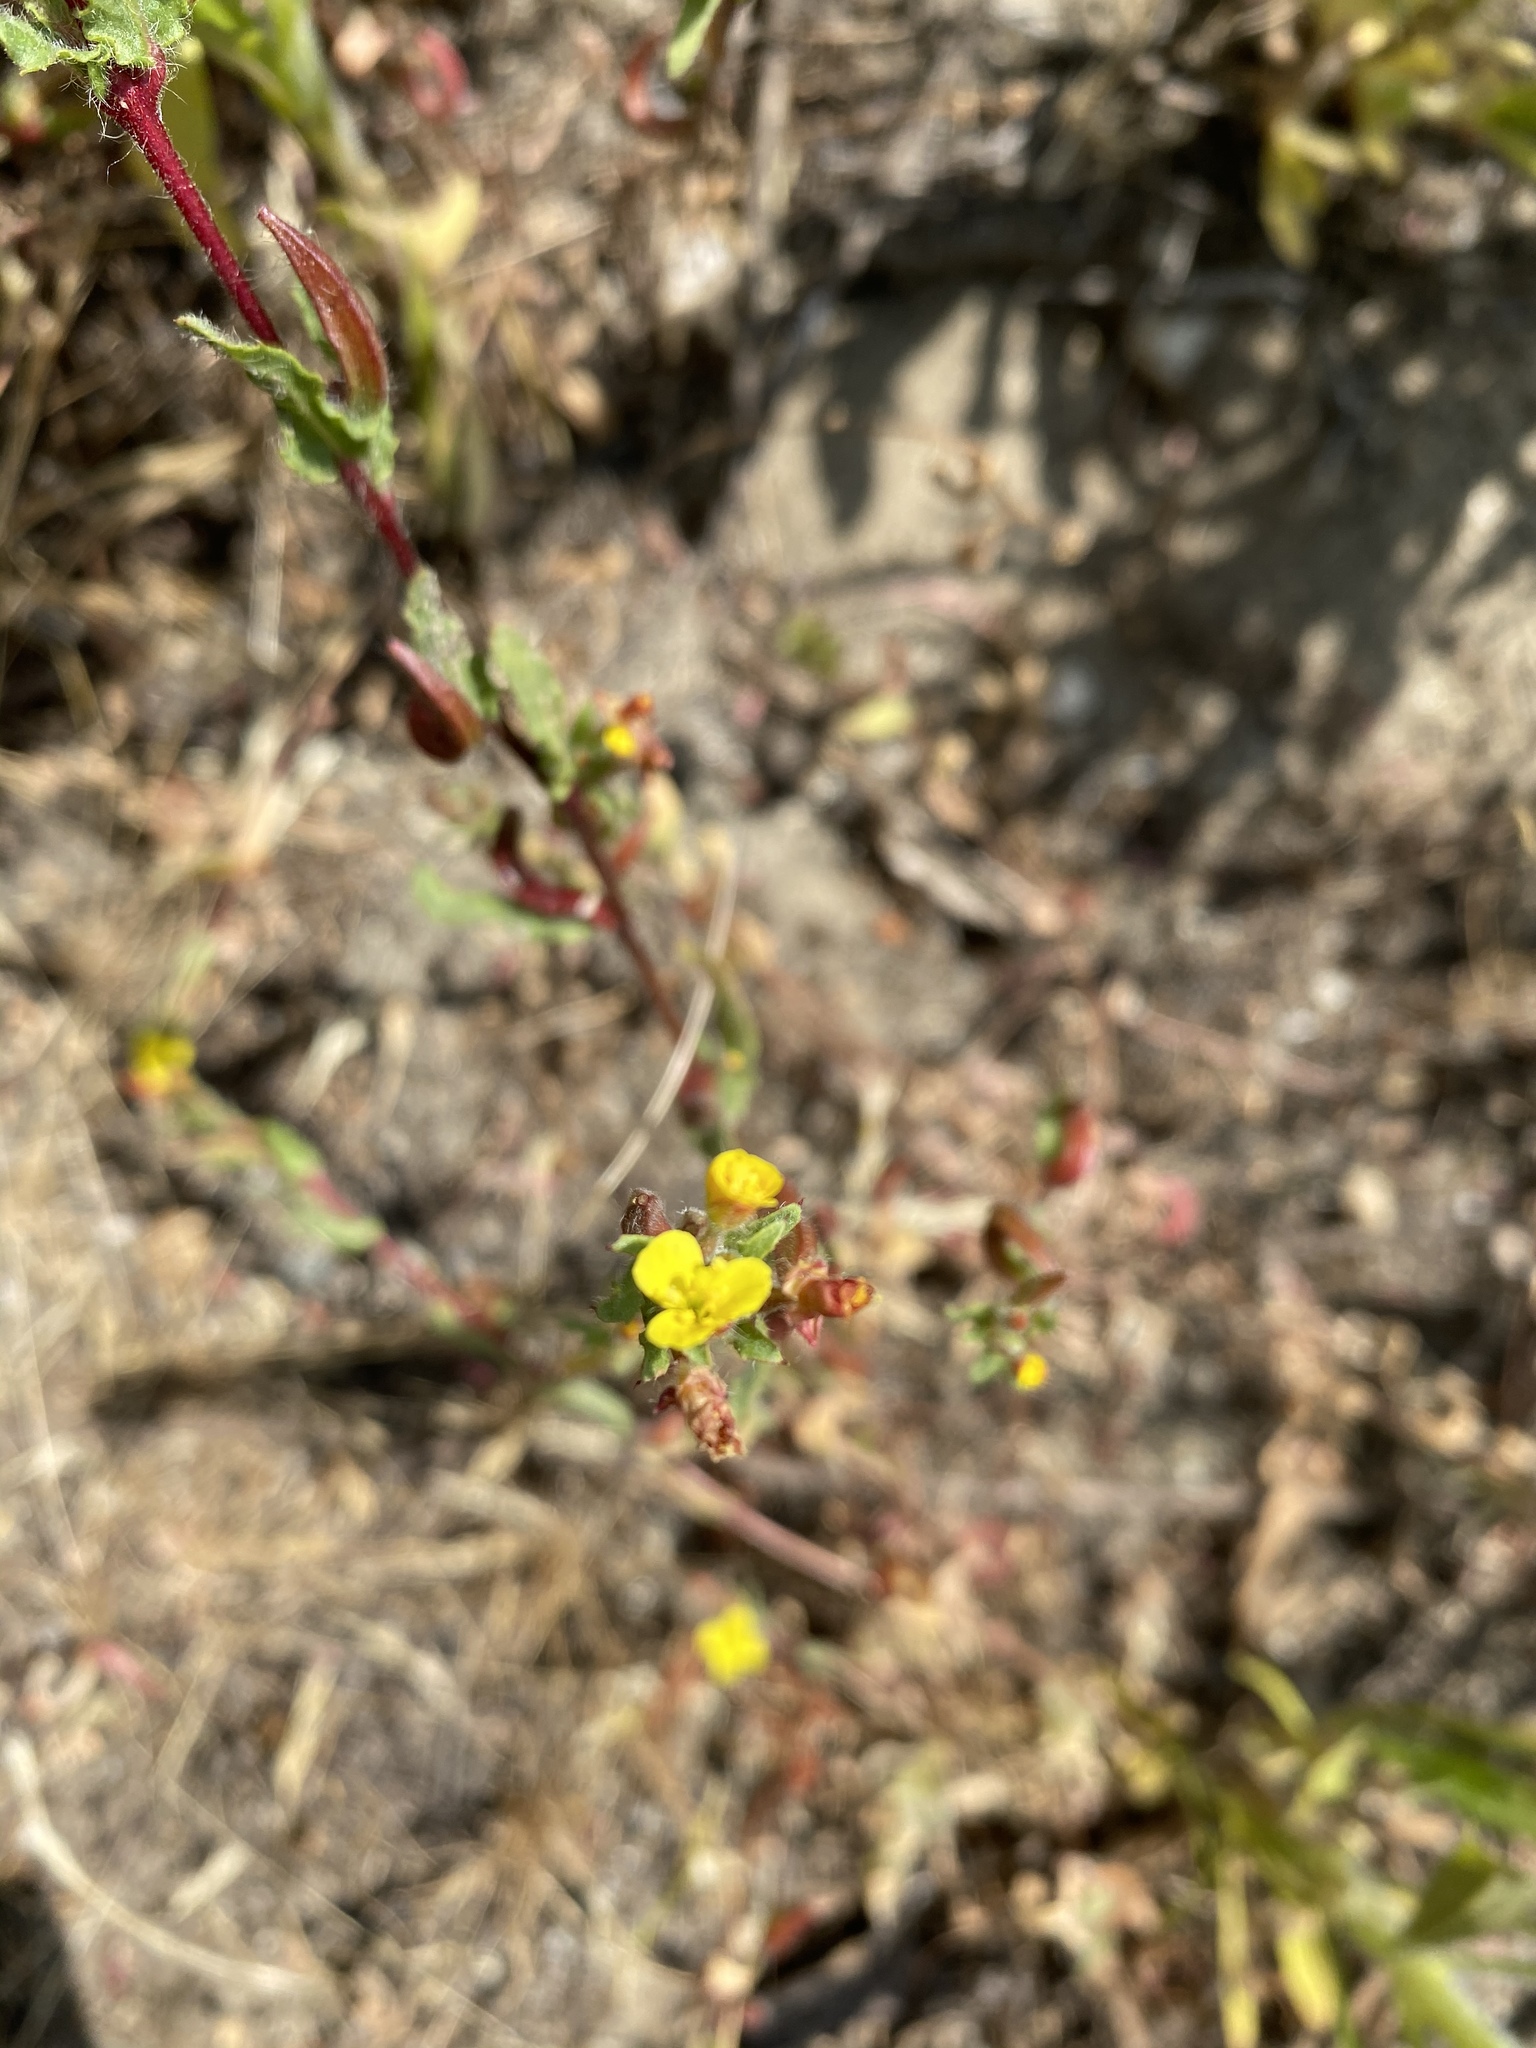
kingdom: Plantae
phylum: Tracheophyta
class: Magnoliopsida
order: Myrtales
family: Onagraceae
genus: Camissoniopsis
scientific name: Camissoniopsis bistorta
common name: Southern suncup
